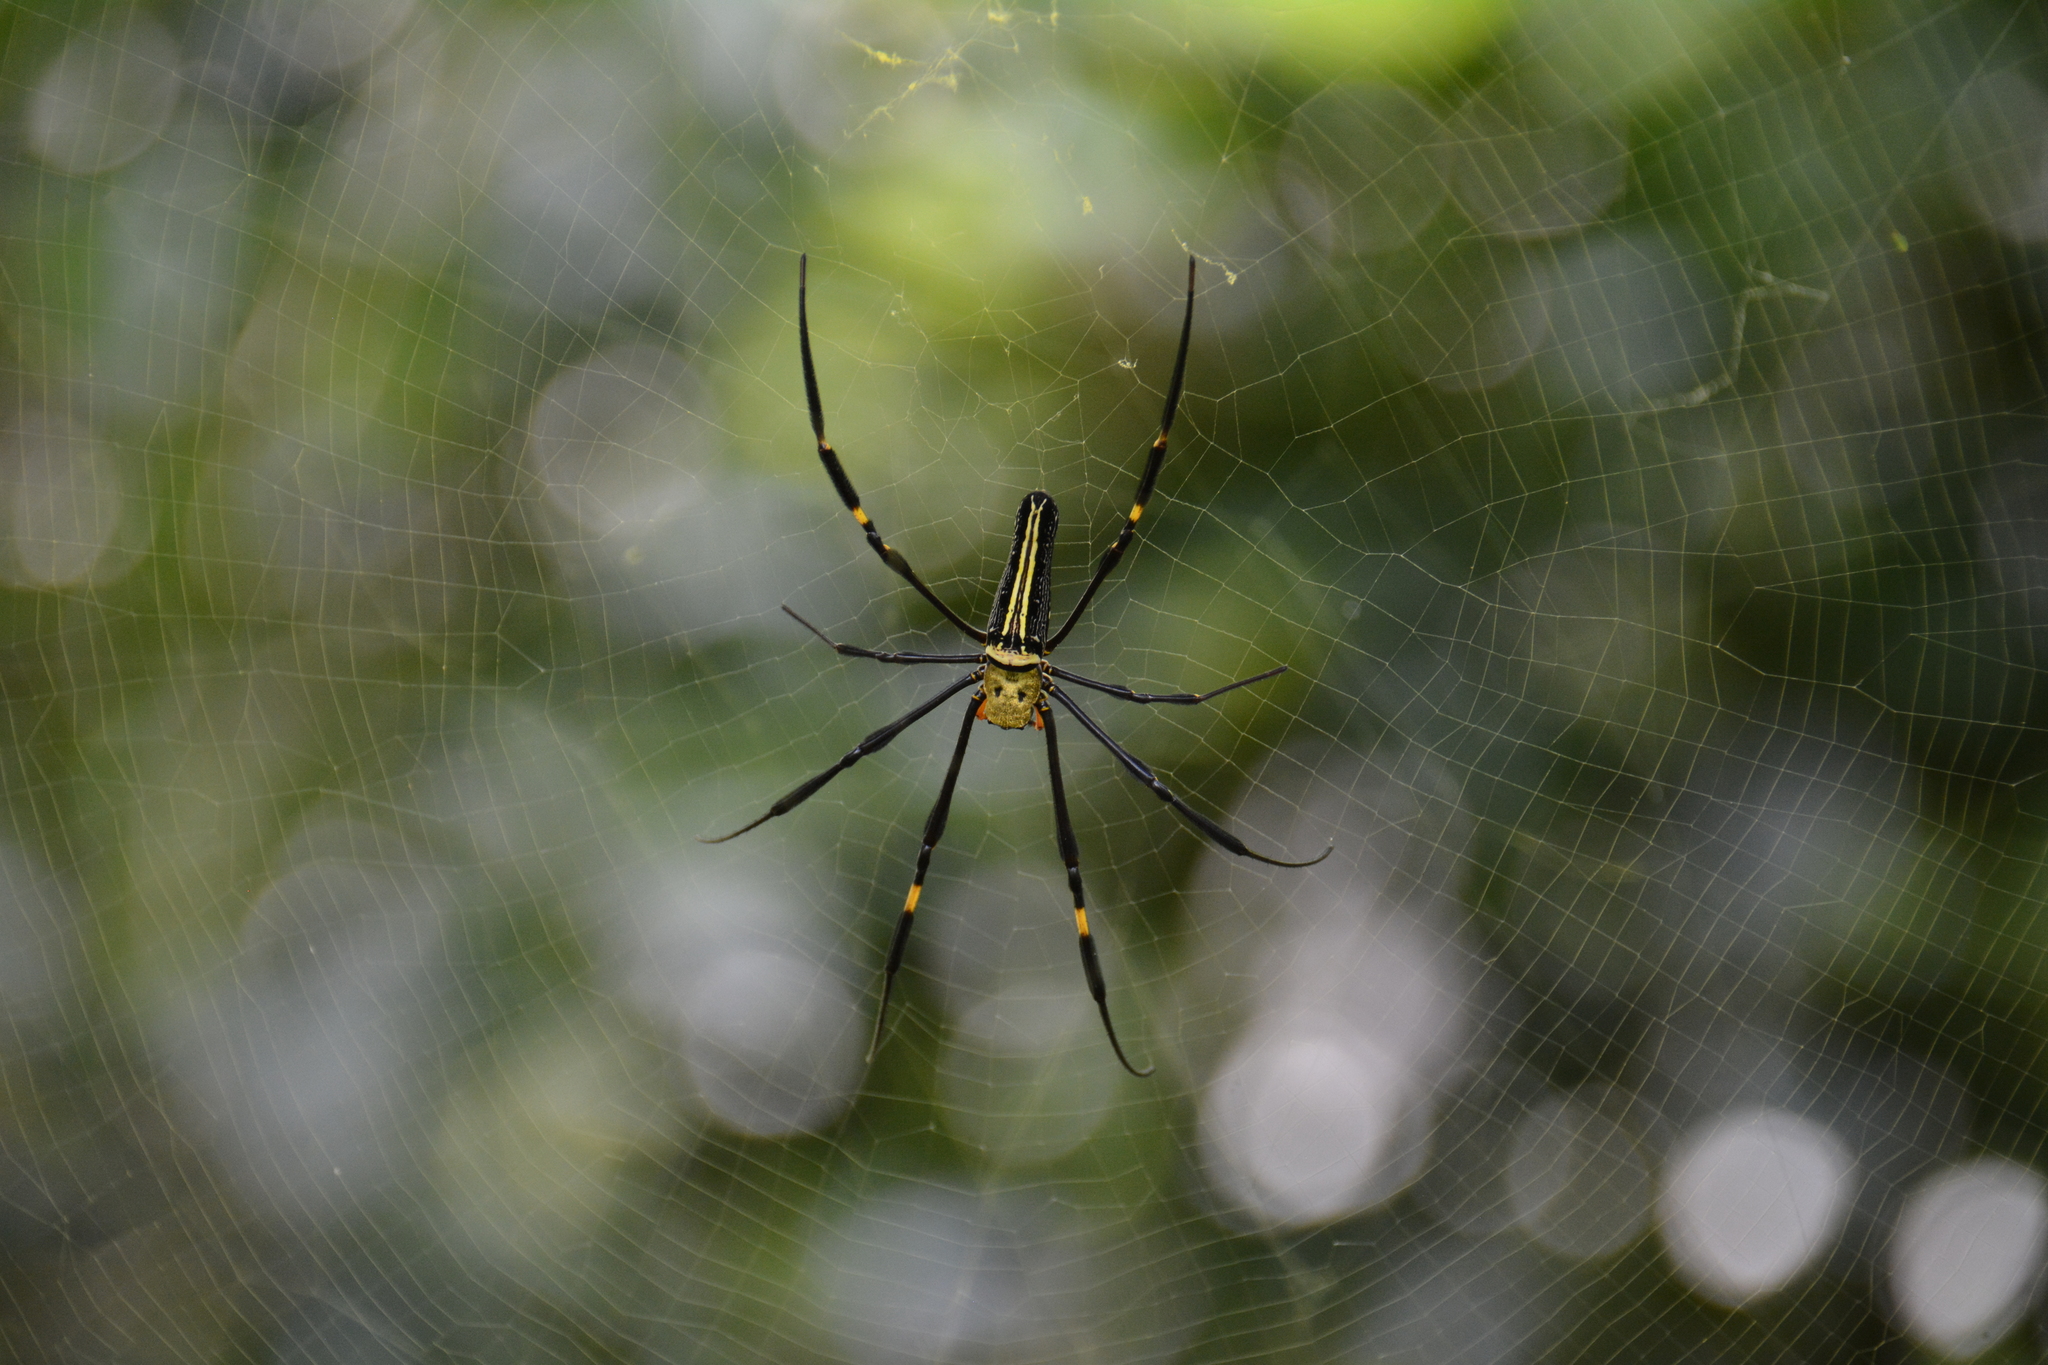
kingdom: Animalia
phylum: Arthropoda
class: Arachnida
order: Araneae
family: Araneidae
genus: Nephila
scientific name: Nephila pilipes
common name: Giant golden orb weaver
